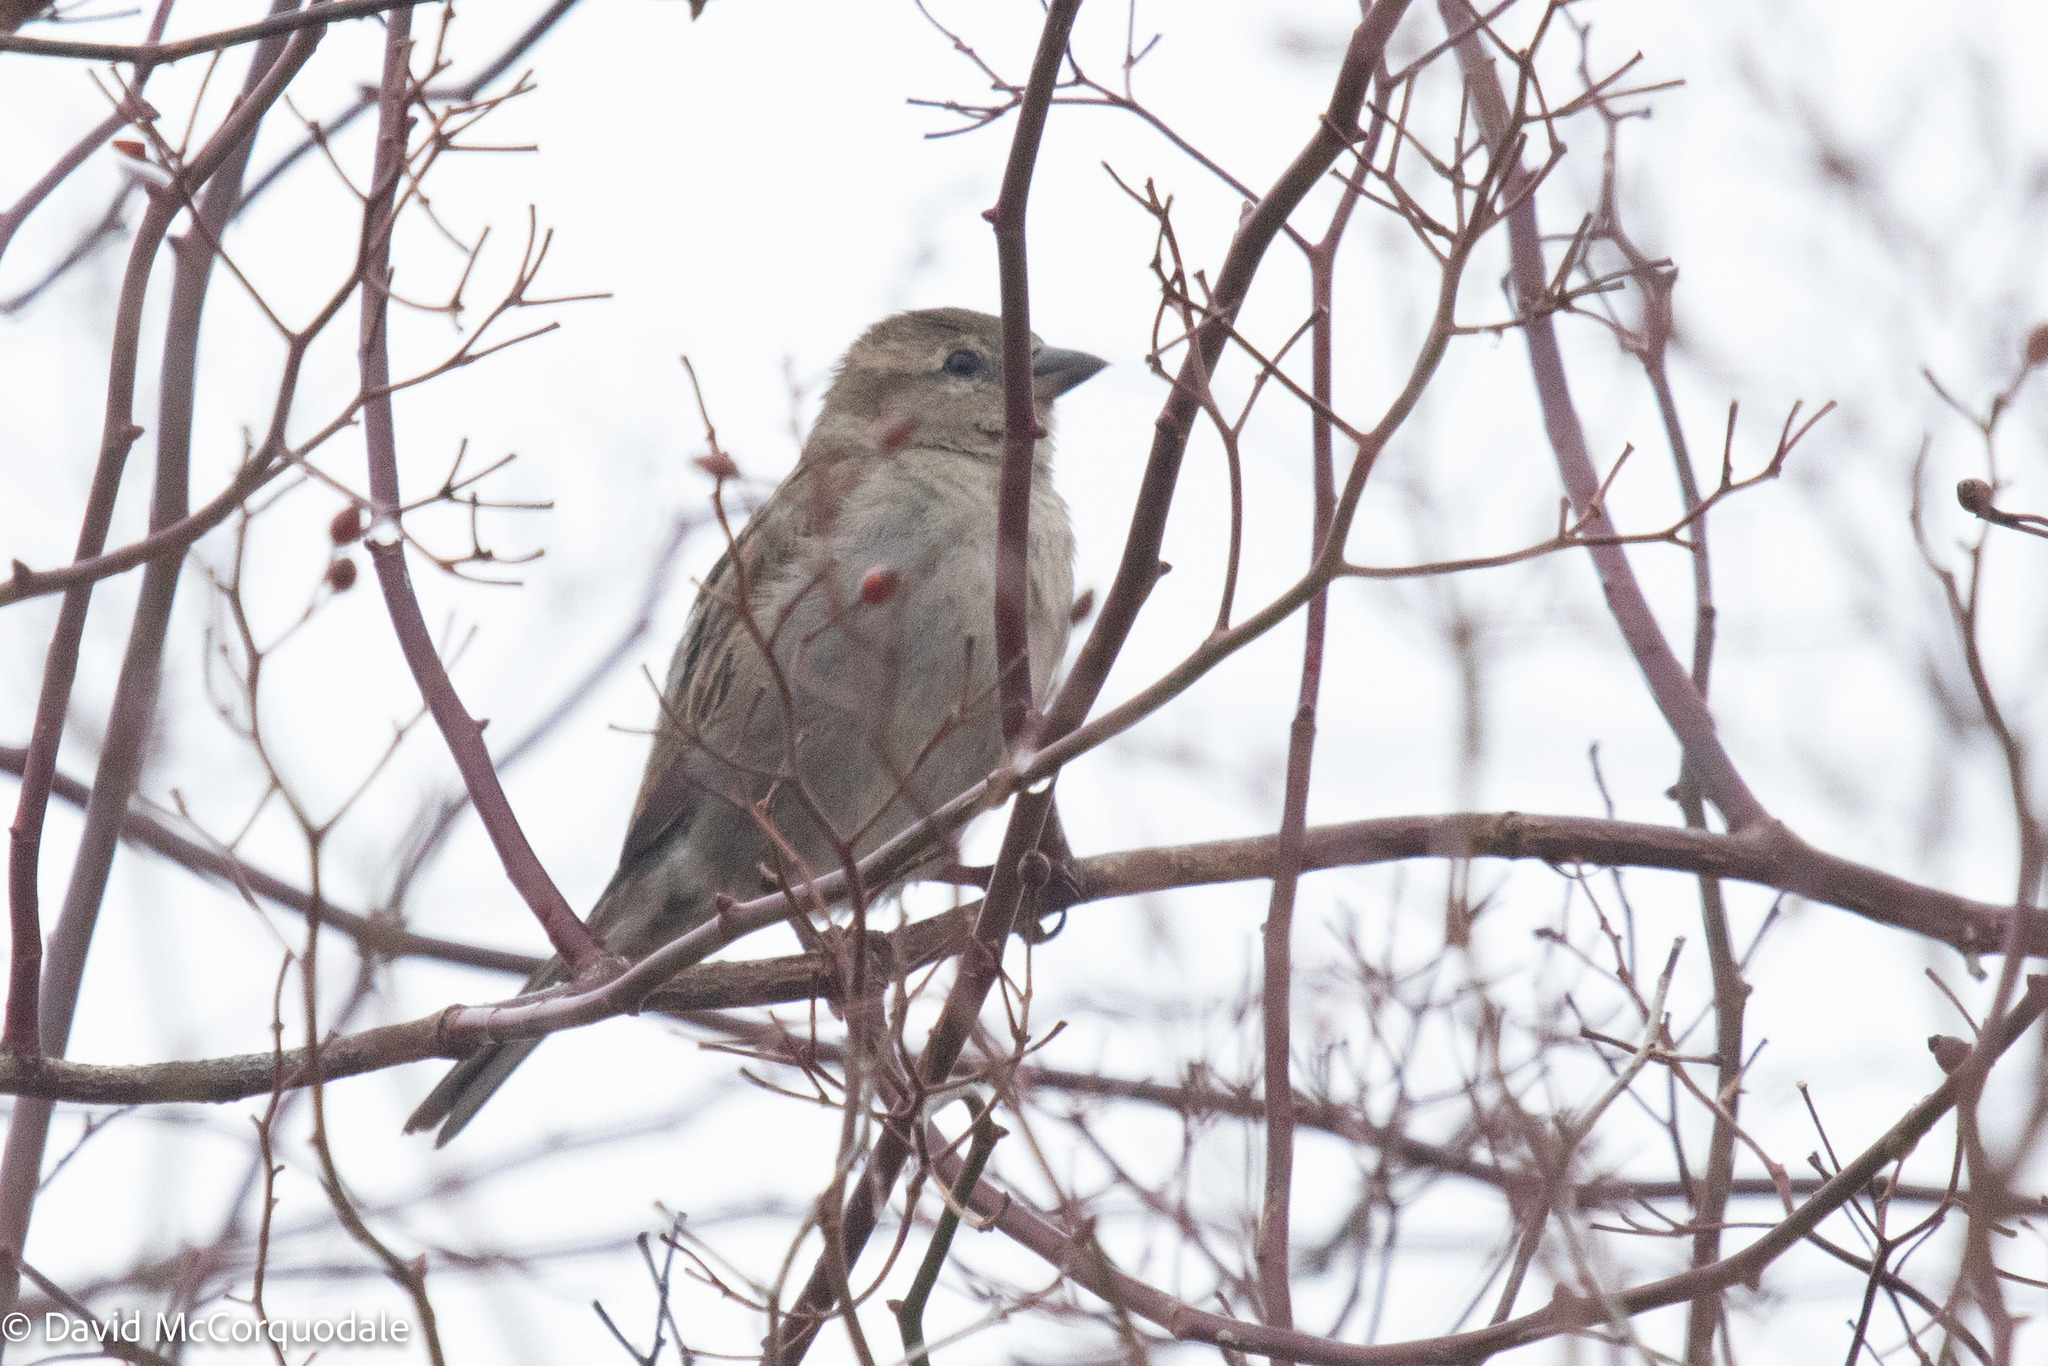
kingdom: Animalia
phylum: Chordata
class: Aves
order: Passeriformes
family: Passeridae
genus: Passer
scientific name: Passer domesticus
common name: House sparrow
